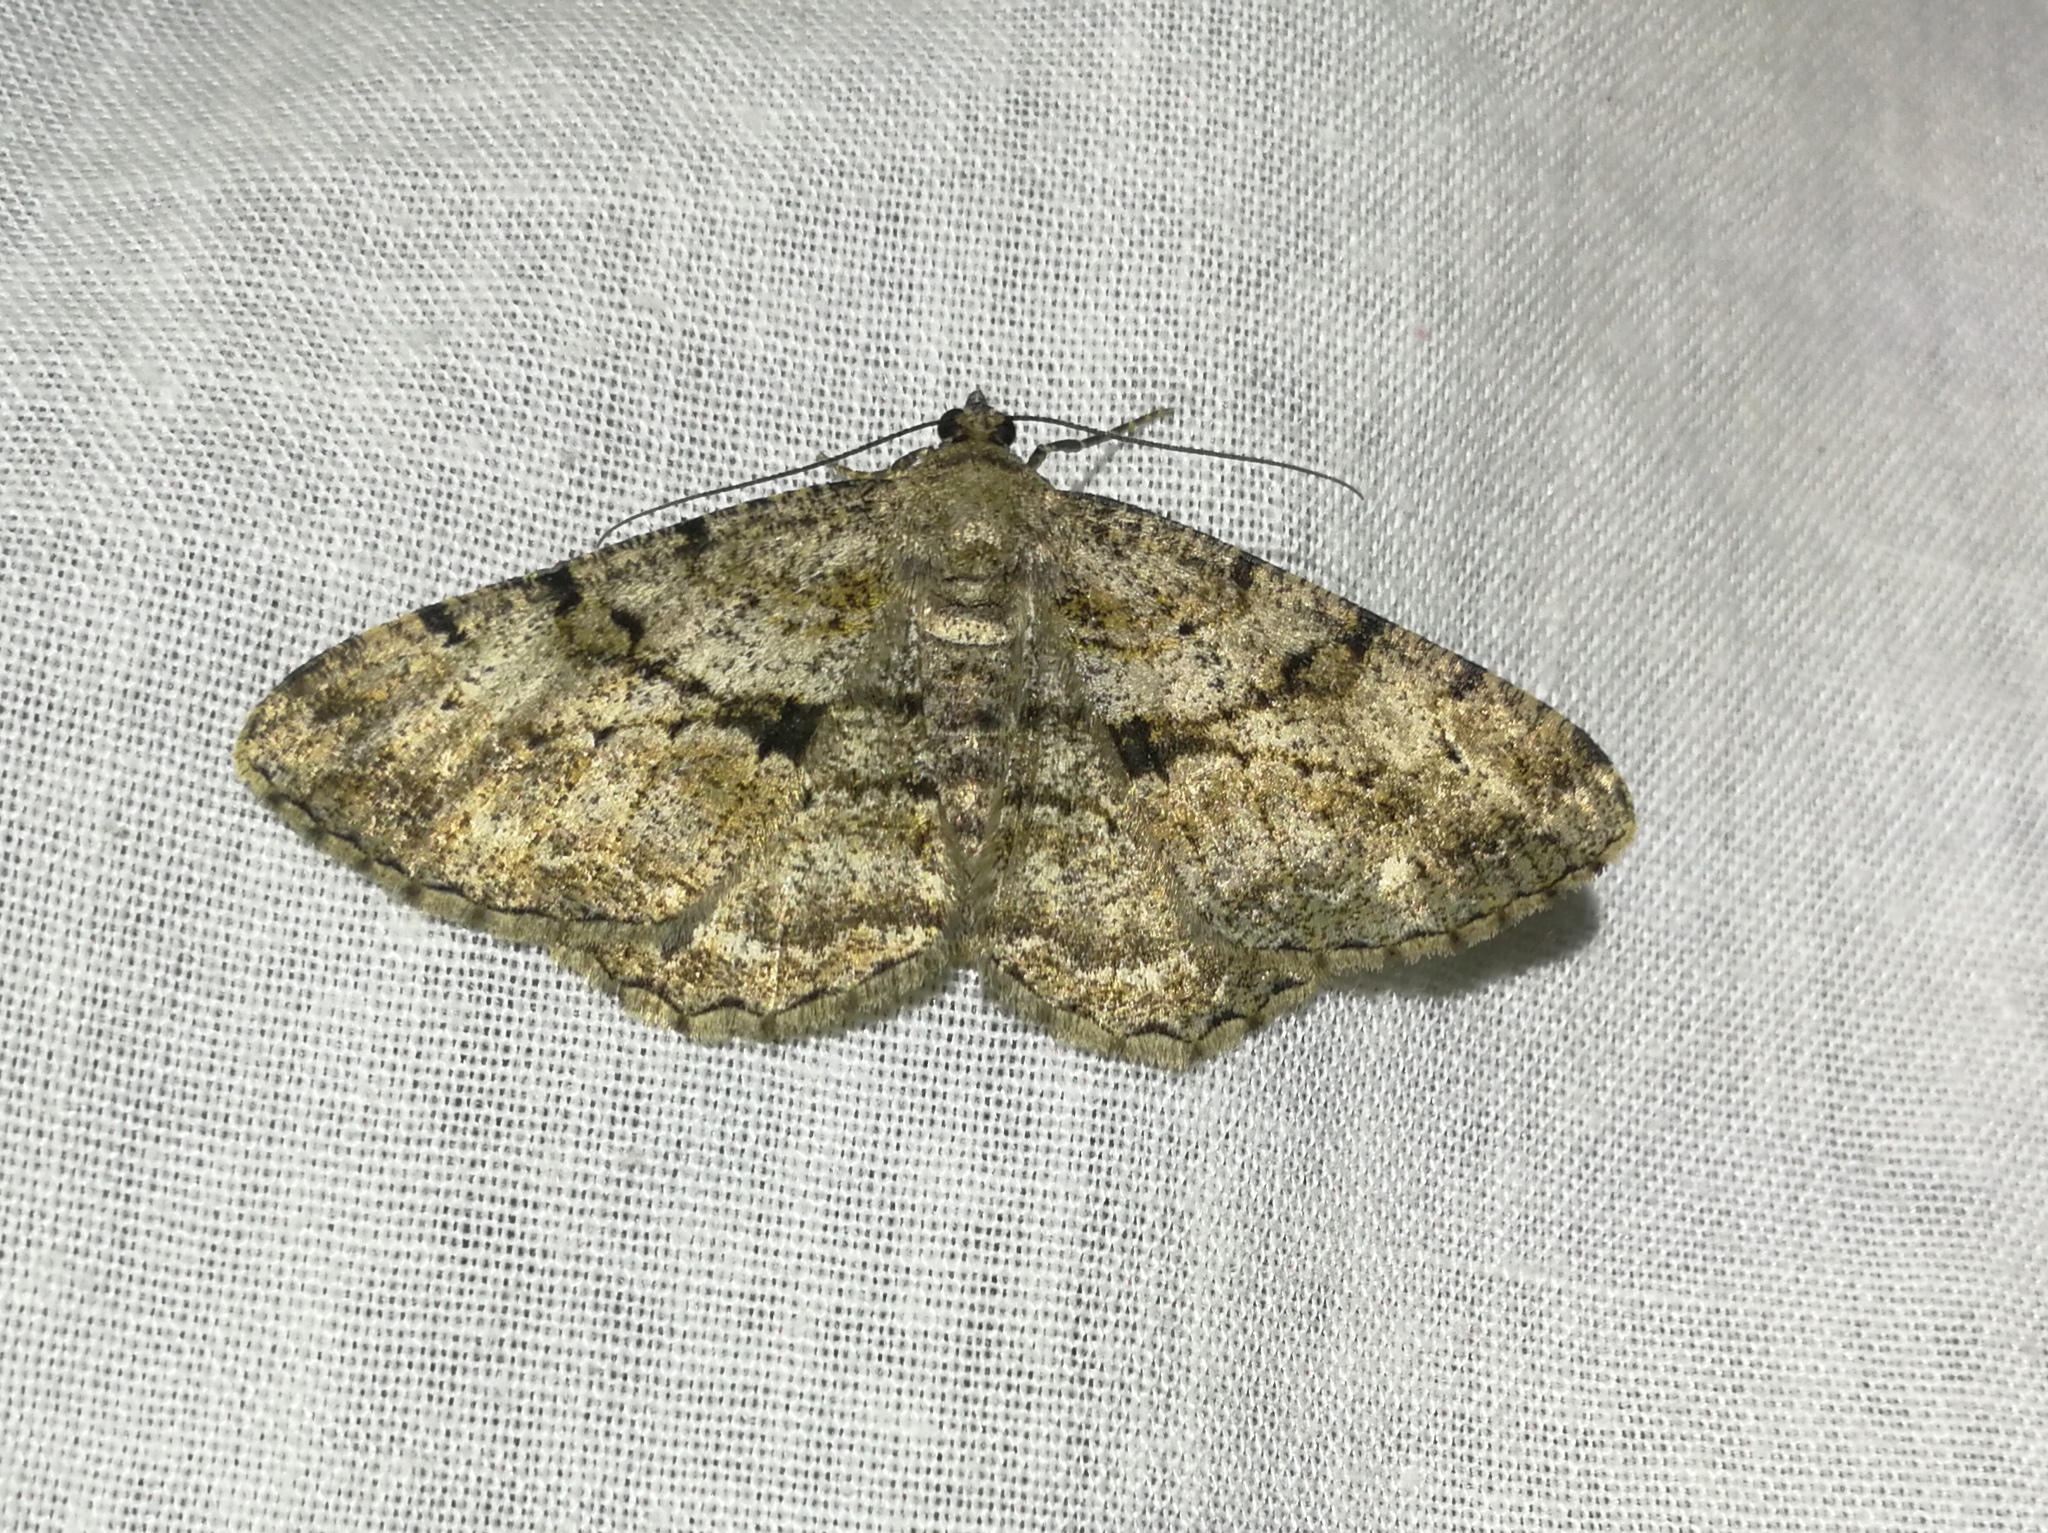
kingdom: Animalia
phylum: Arthropoda
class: Insecta
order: Lepidoptera
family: Geometridae
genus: Peribatodes
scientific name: Peribatodes rhomboidaria
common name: Willow beauty
